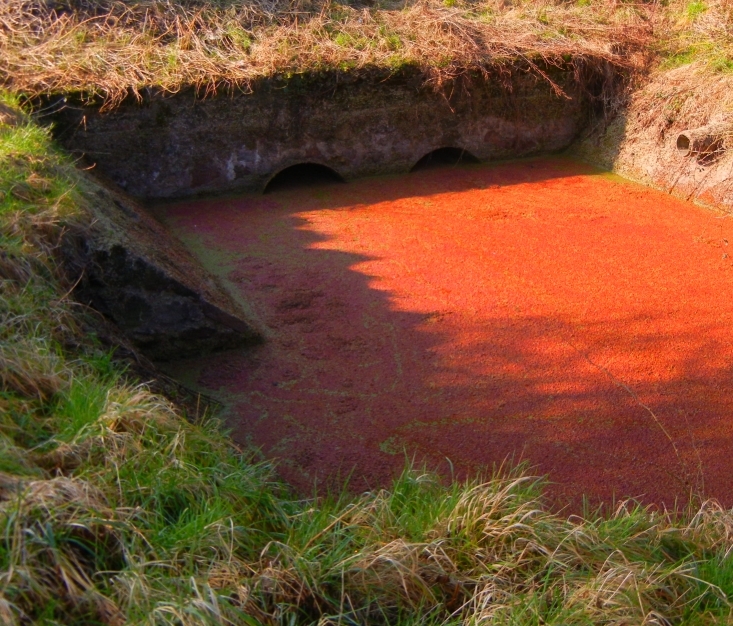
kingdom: Plantae
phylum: Tracheophyta
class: Polypodiopsida
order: Salviniales
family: Salviniaceae
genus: Azolla
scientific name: Azolla filiculoides
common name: Water fern
